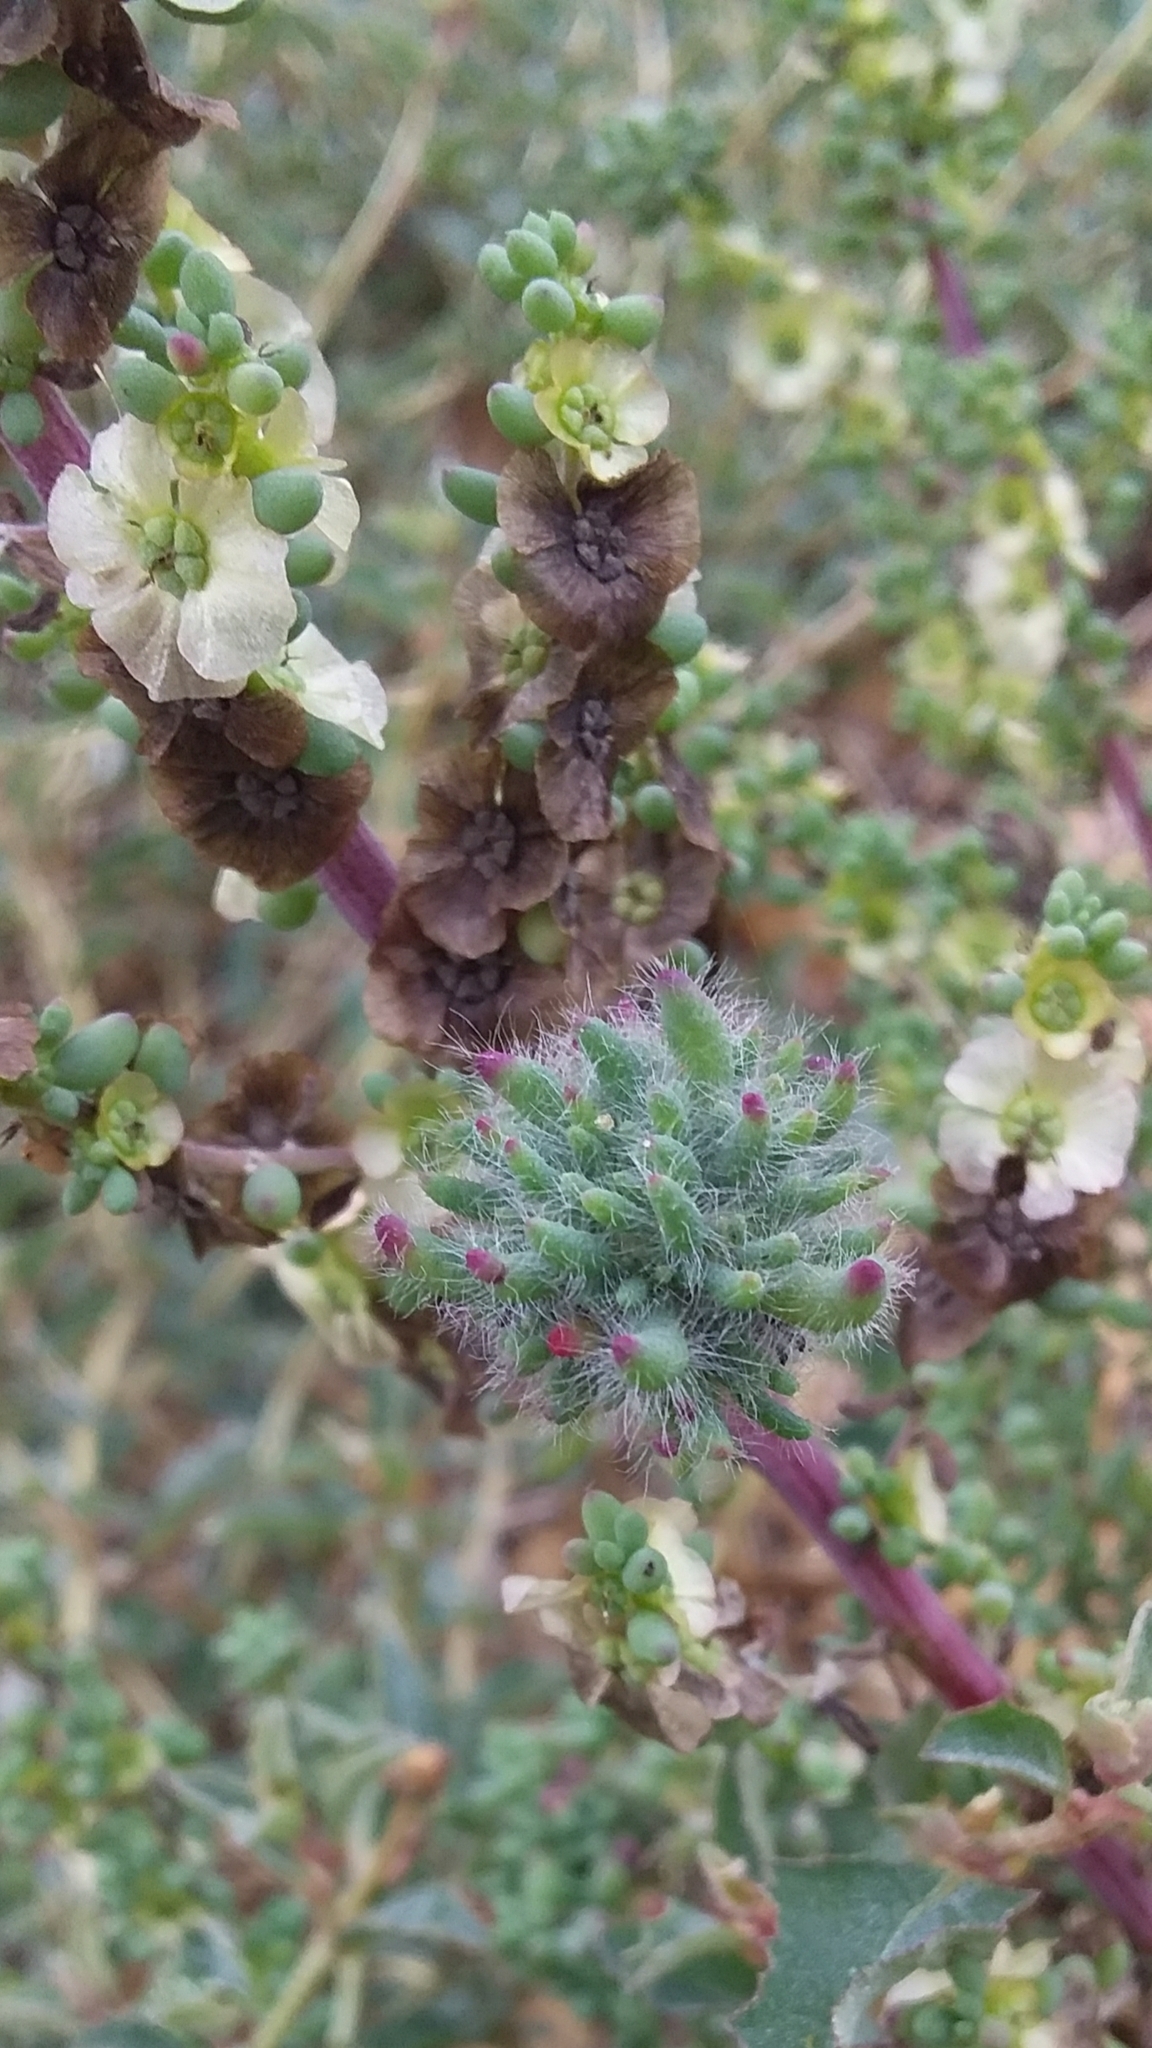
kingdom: Animalia
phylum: Arthropoda
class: Insecta
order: Diptera
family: Cecidomyiidae
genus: Dactylasioptera
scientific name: Dactylasioptera milnae
